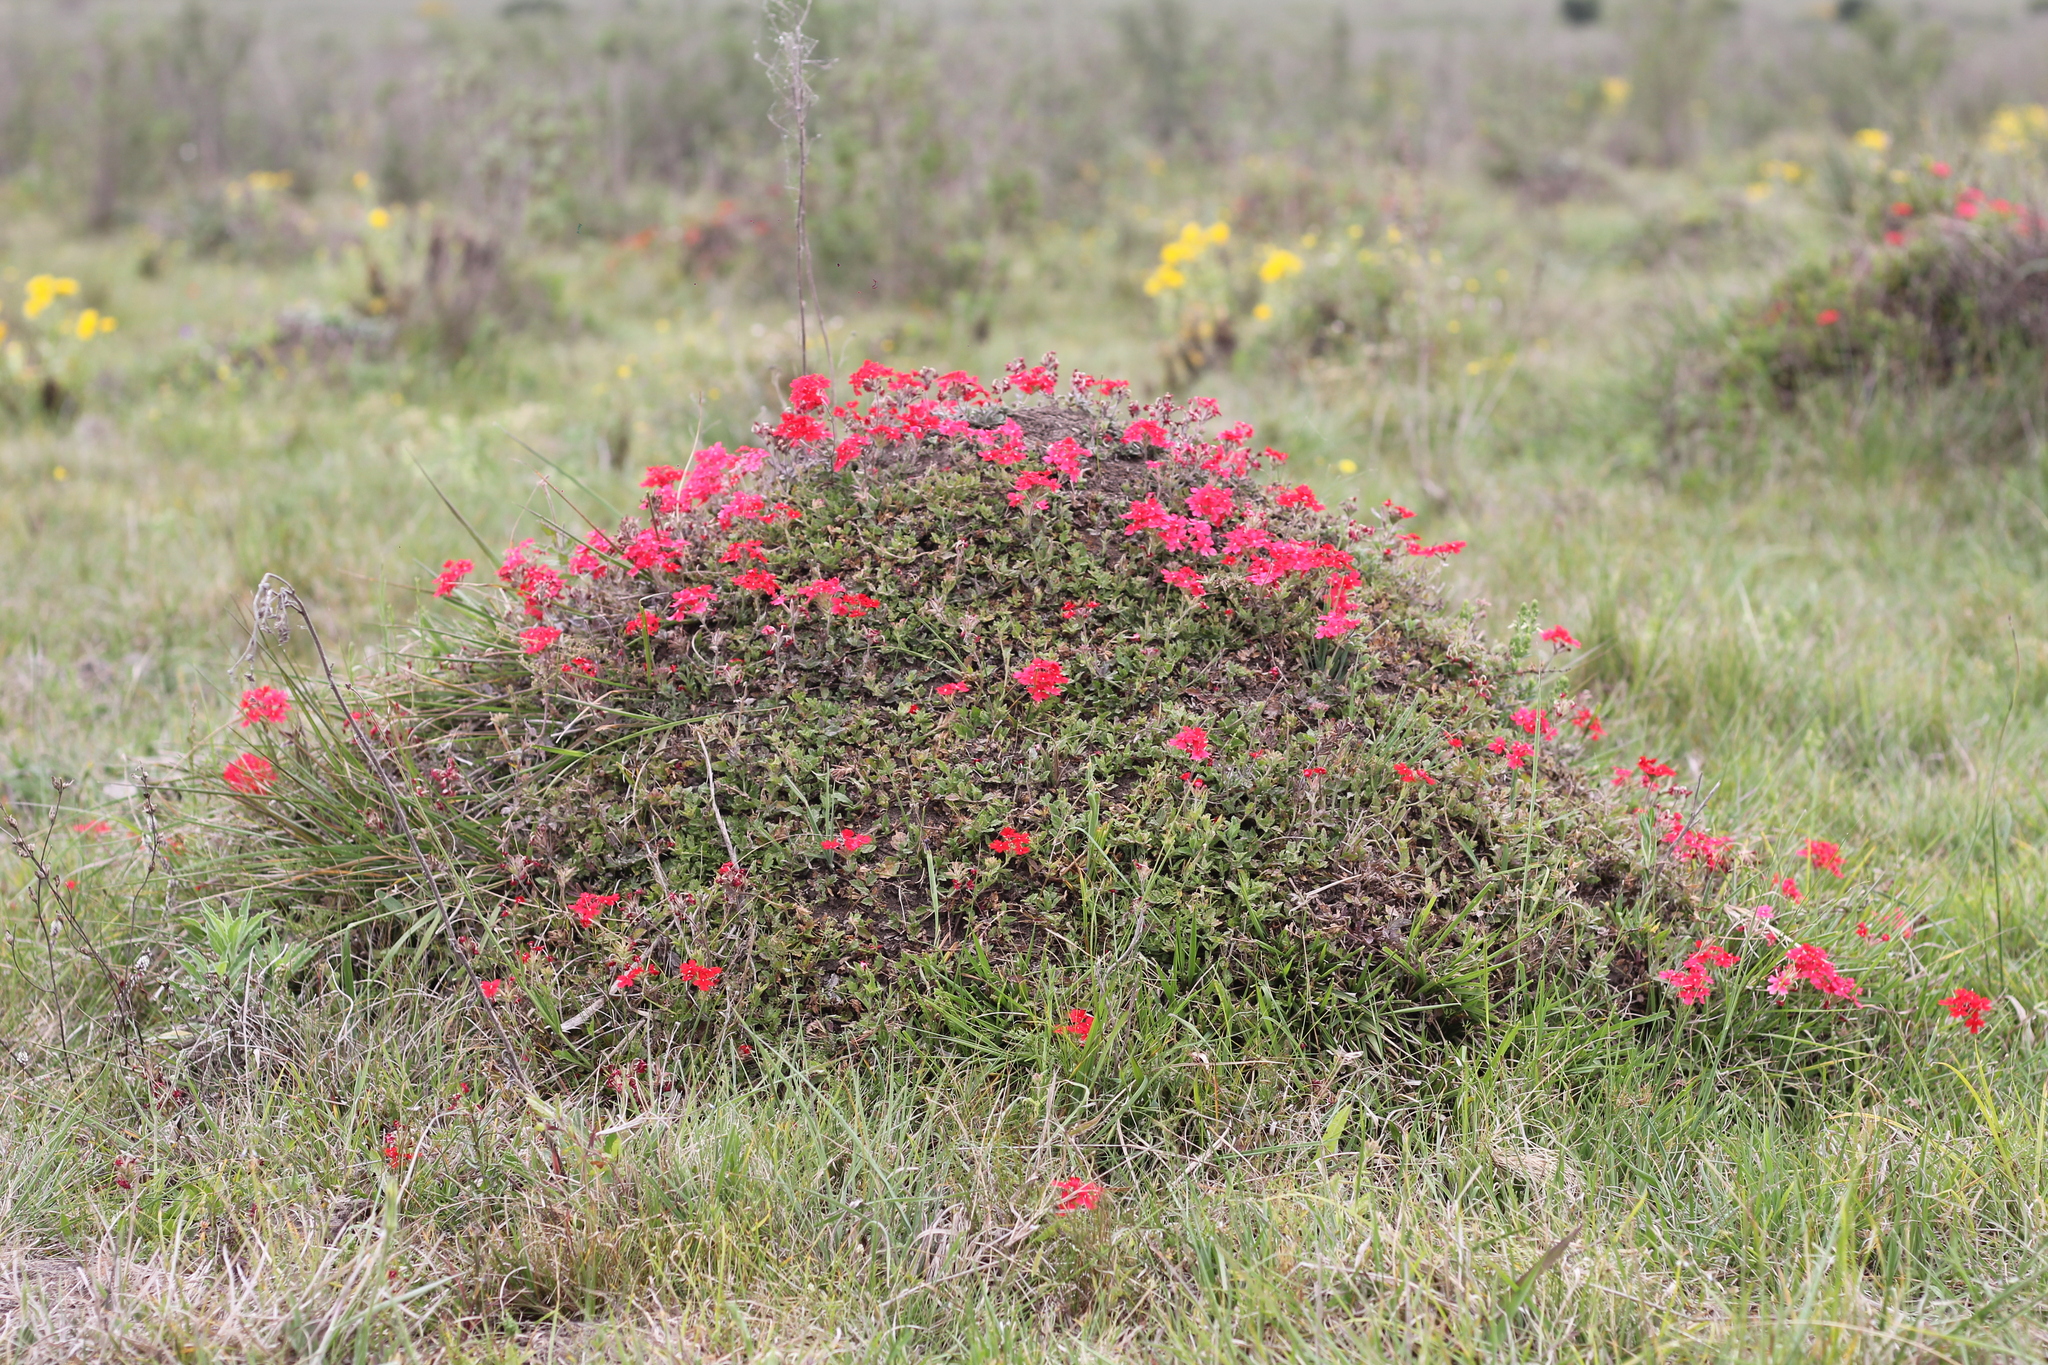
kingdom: Plantae
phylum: Tracheophyta
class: Magnoliopsida
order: Lamiales
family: Verbenaceae
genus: Verbena
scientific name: Verbena peruviana
